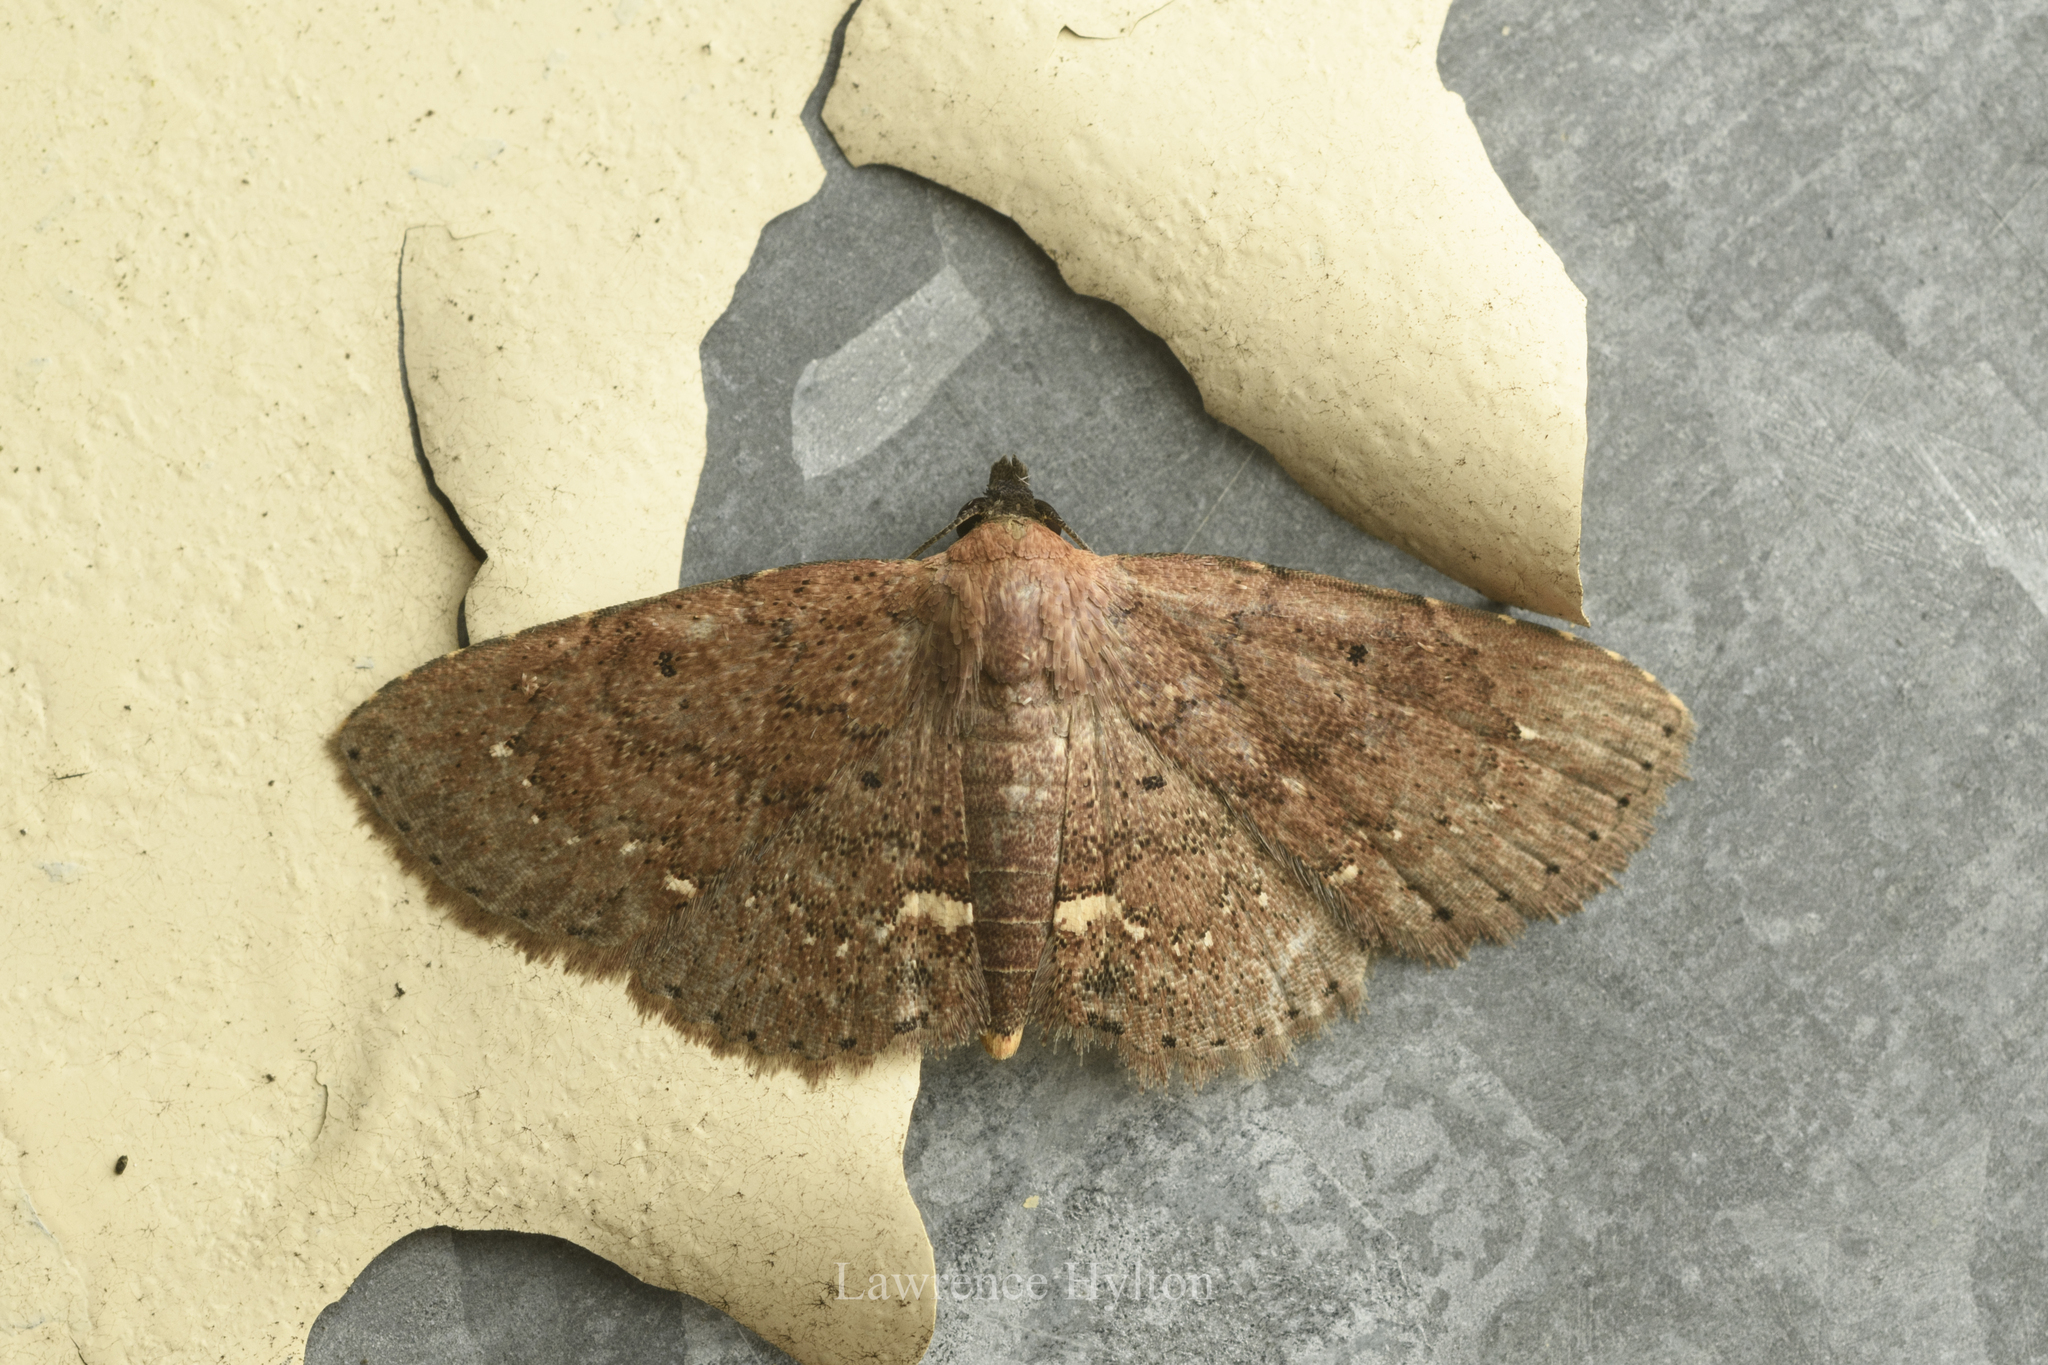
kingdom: Animalia
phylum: Arthropoda
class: Insecta
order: Lepidoptera
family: Erebidae
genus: Nechesia
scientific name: Nechesia albotentata
